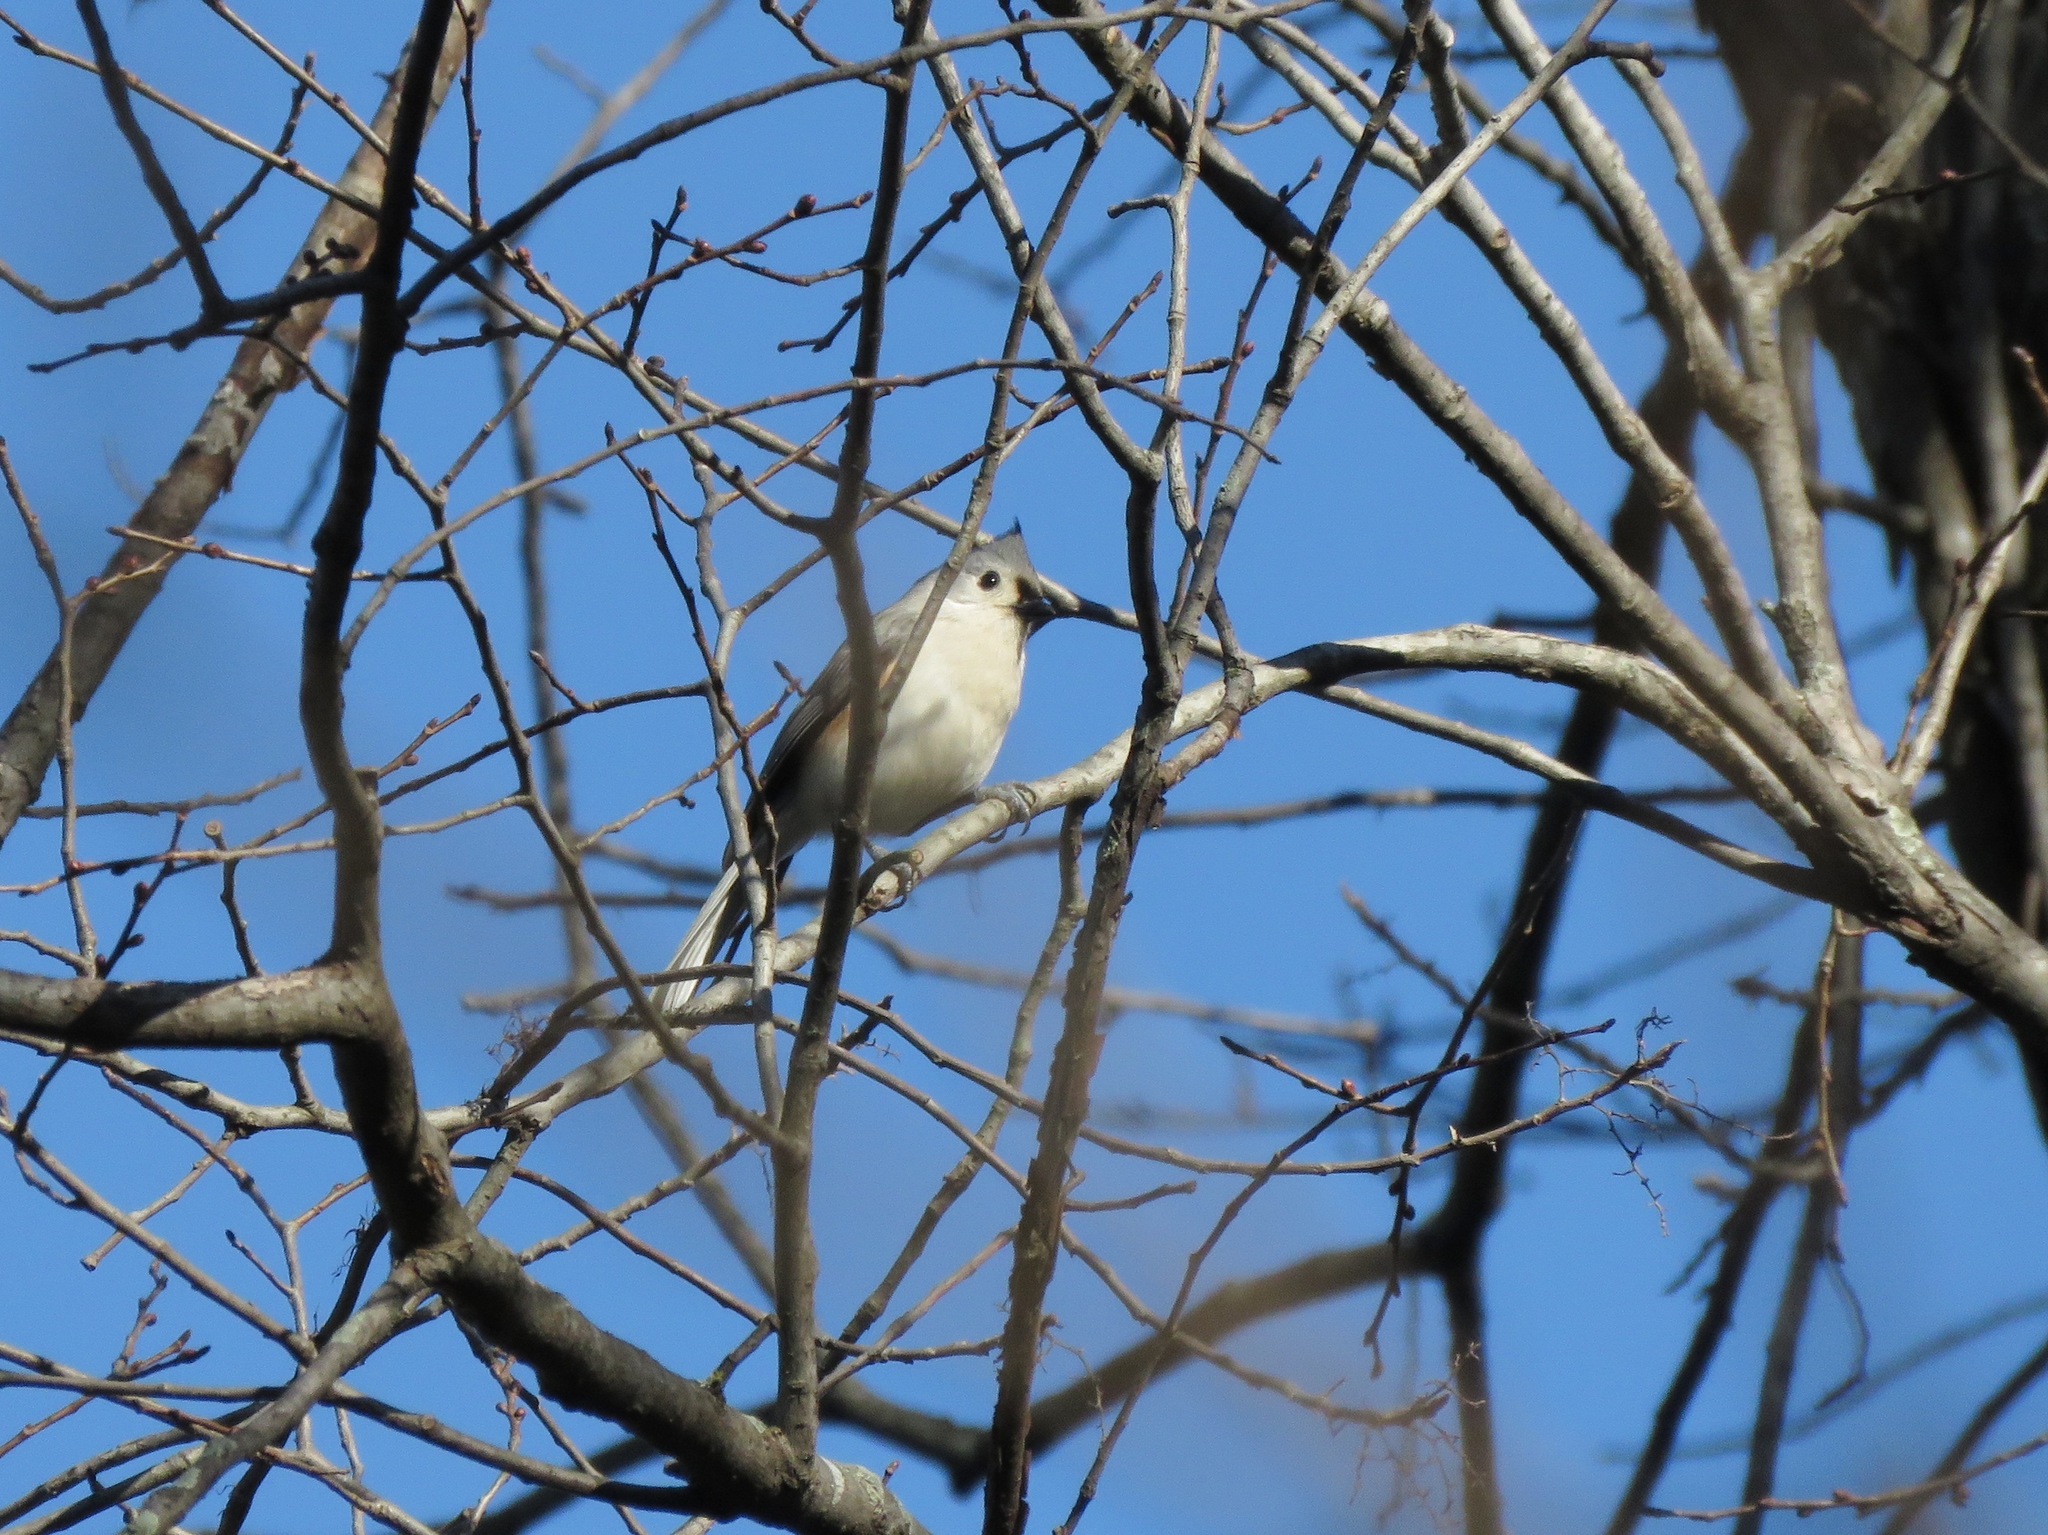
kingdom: Animalia
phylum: Chordata
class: Aves
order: Passeriformes
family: Paridae
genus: Baeolophus
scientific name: Baeolophus bicolor
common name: Tufted titmouse
